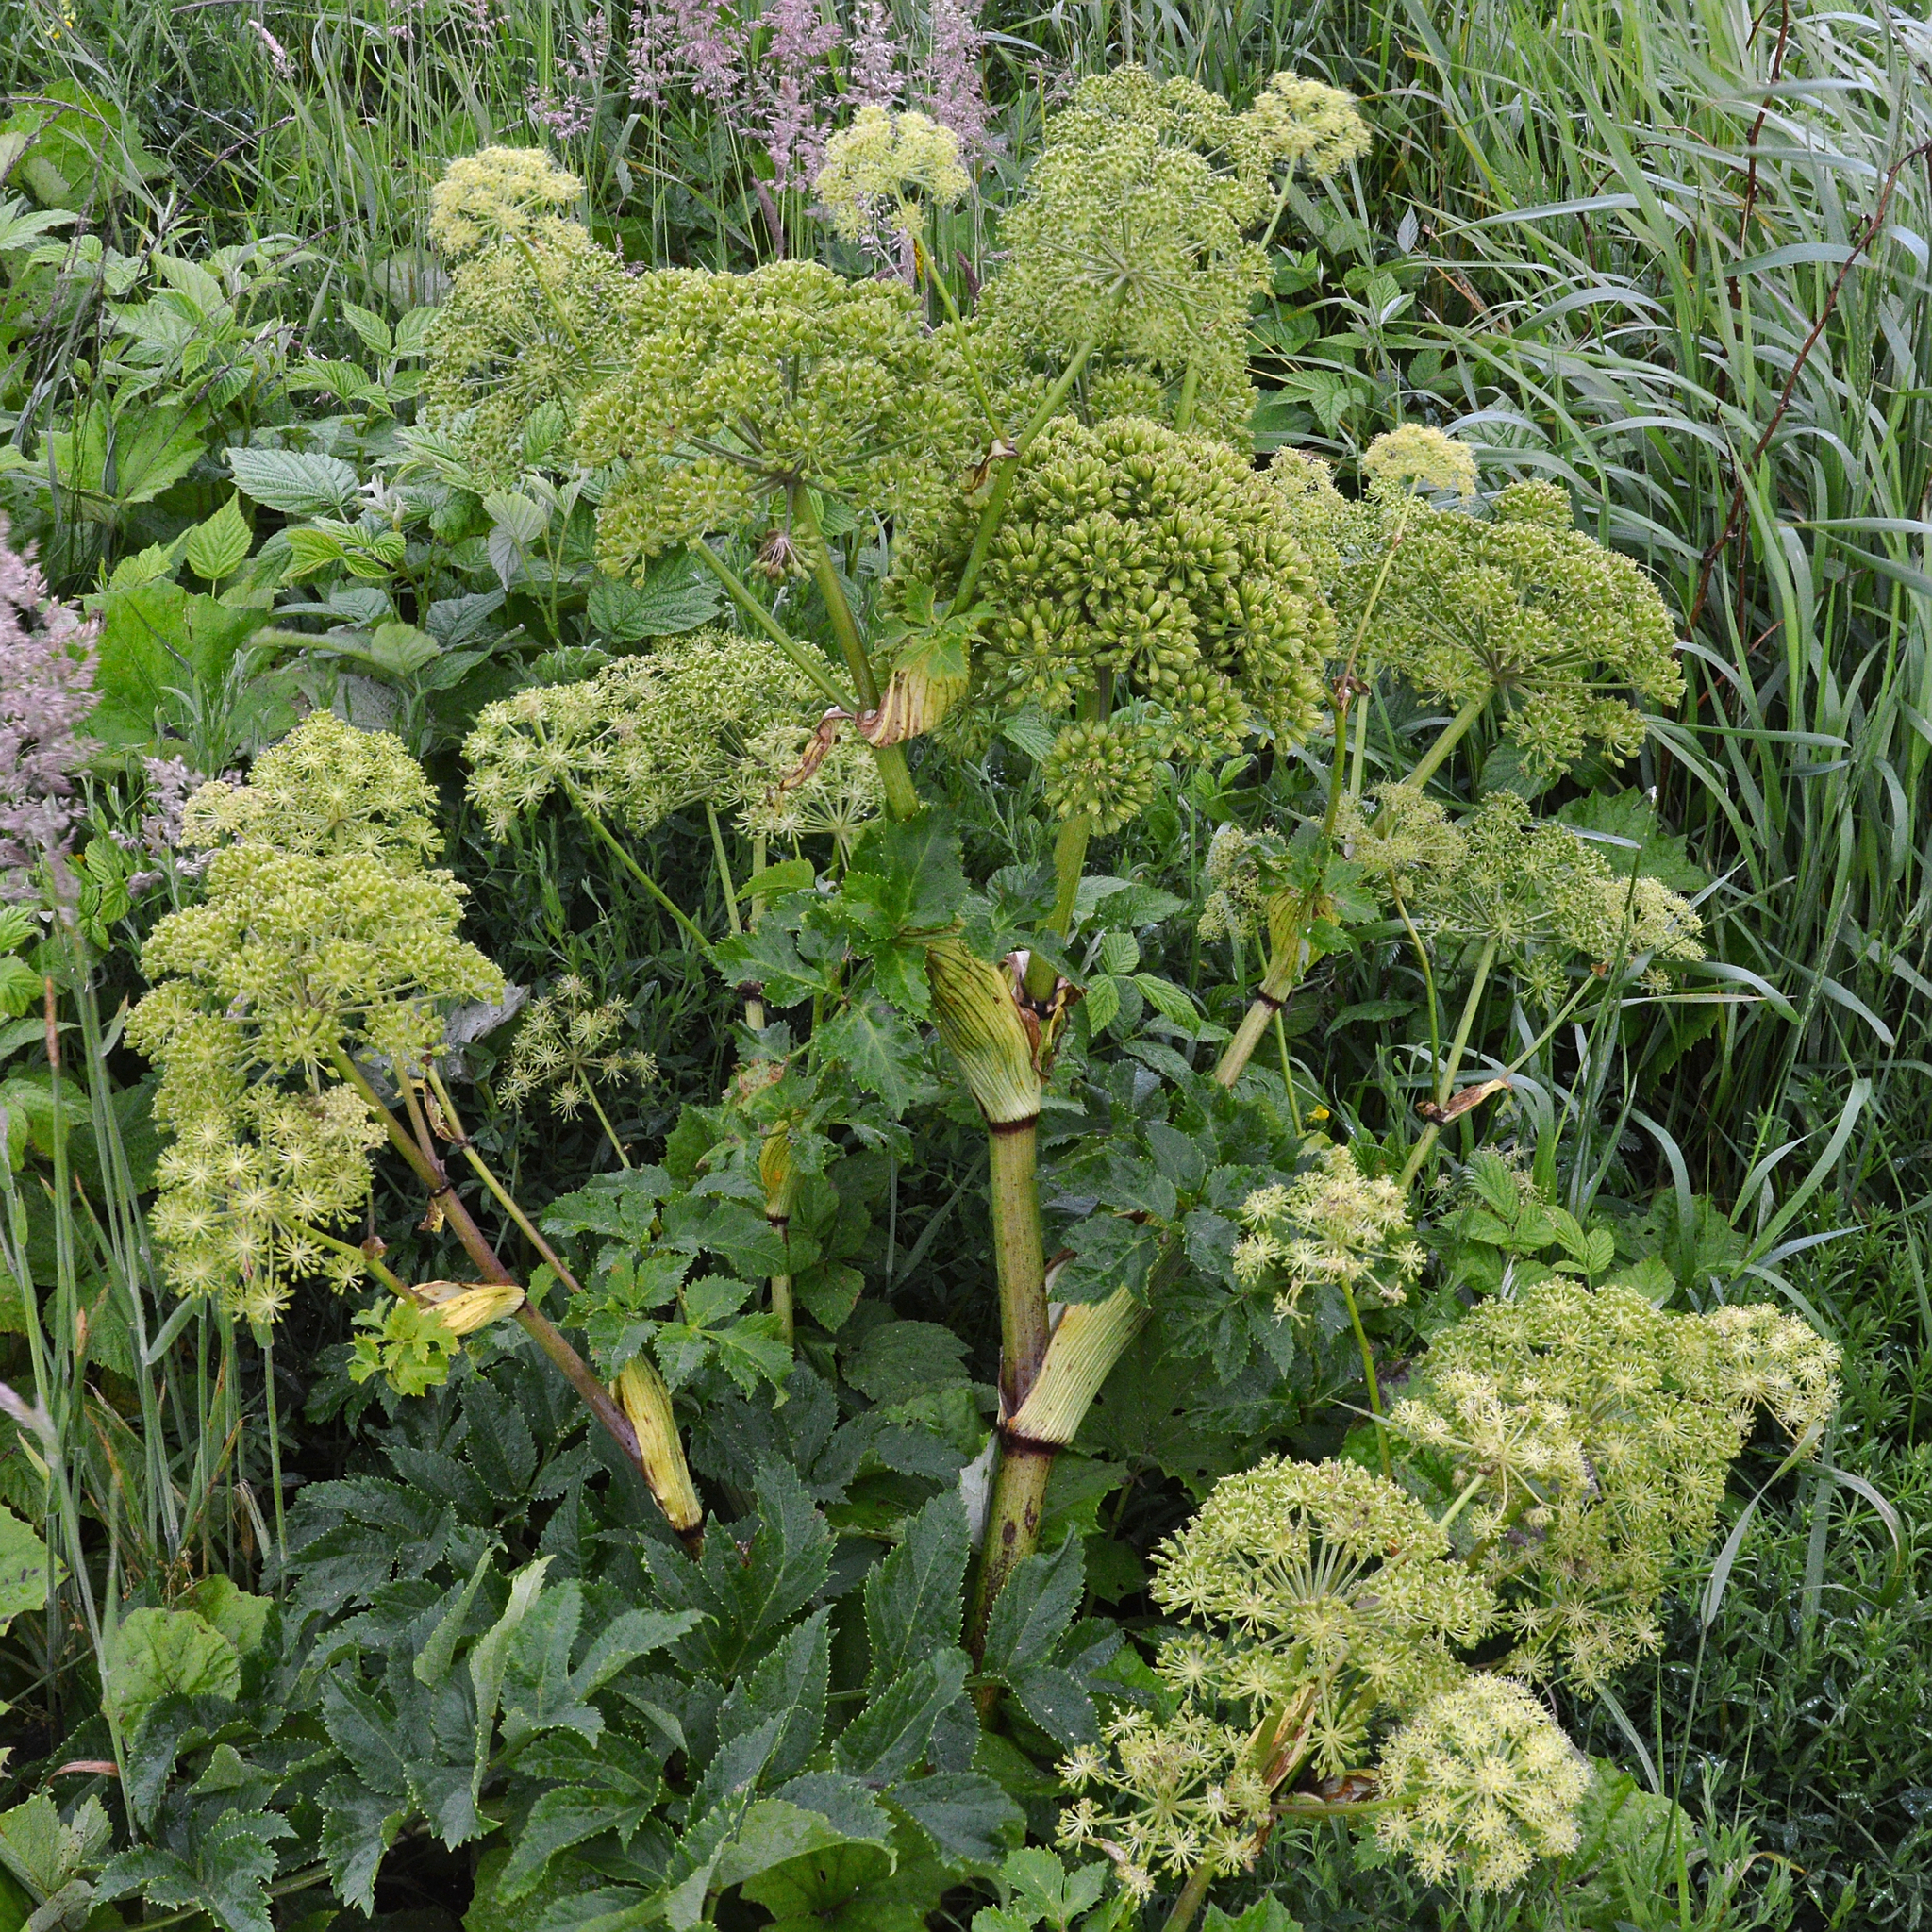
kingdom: Plantae
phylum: Tracheophyta
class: Magnoliopsida
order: Apiales
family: Apiaceae
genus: Angelica
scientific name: Angelica archangelica
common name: Garden angelica
